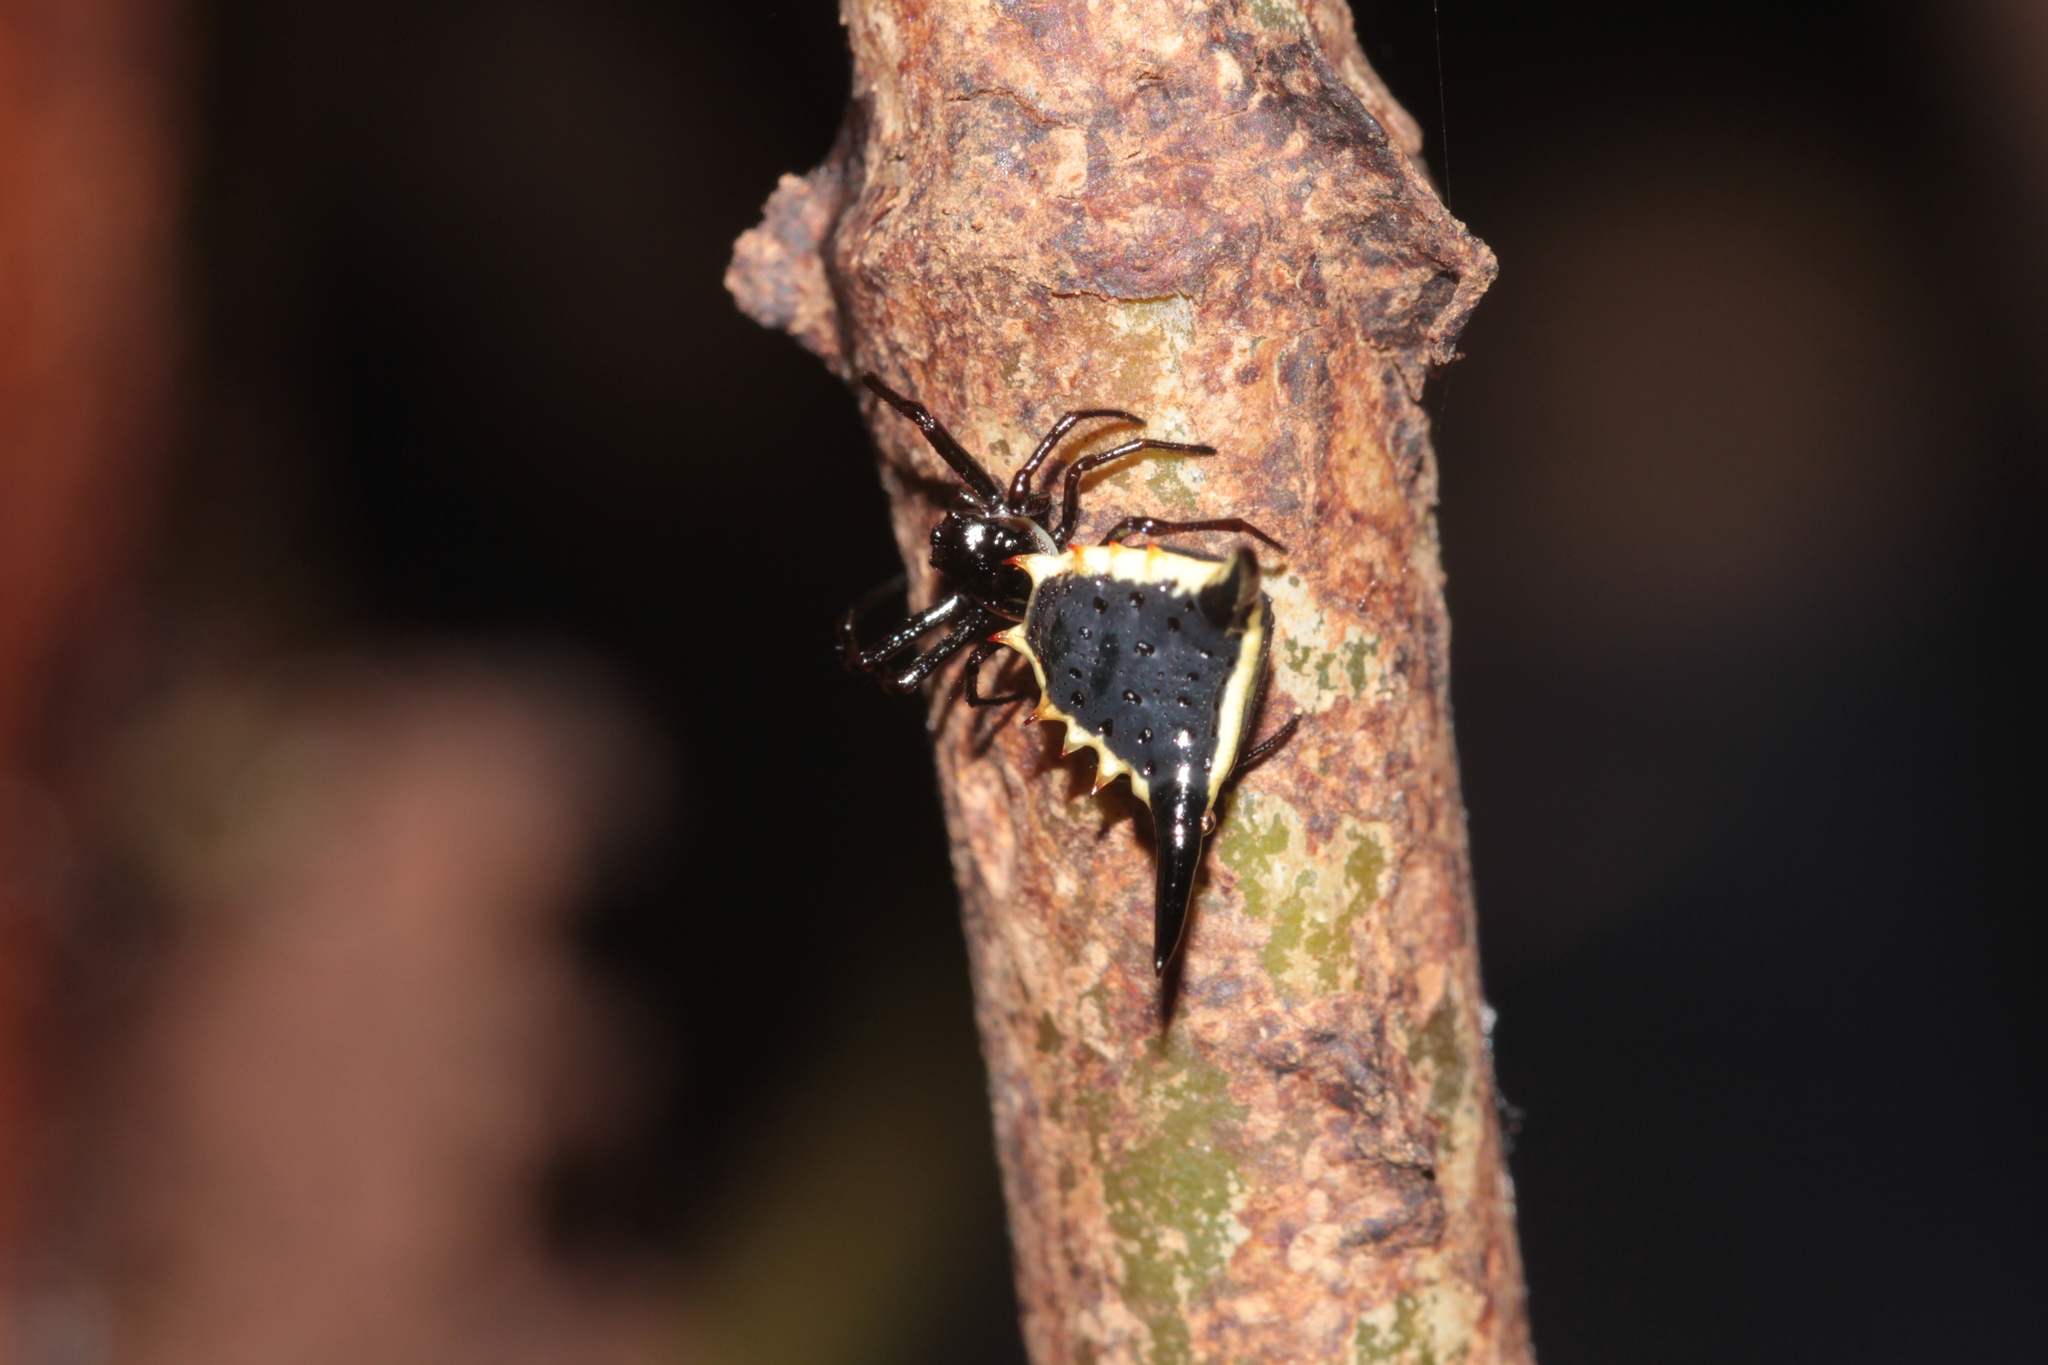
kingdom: Animalia
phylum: Arthropoda
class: Arachnida
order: Araneae
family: Araneidae
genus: Micrathena
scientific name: Micrathena pungens
